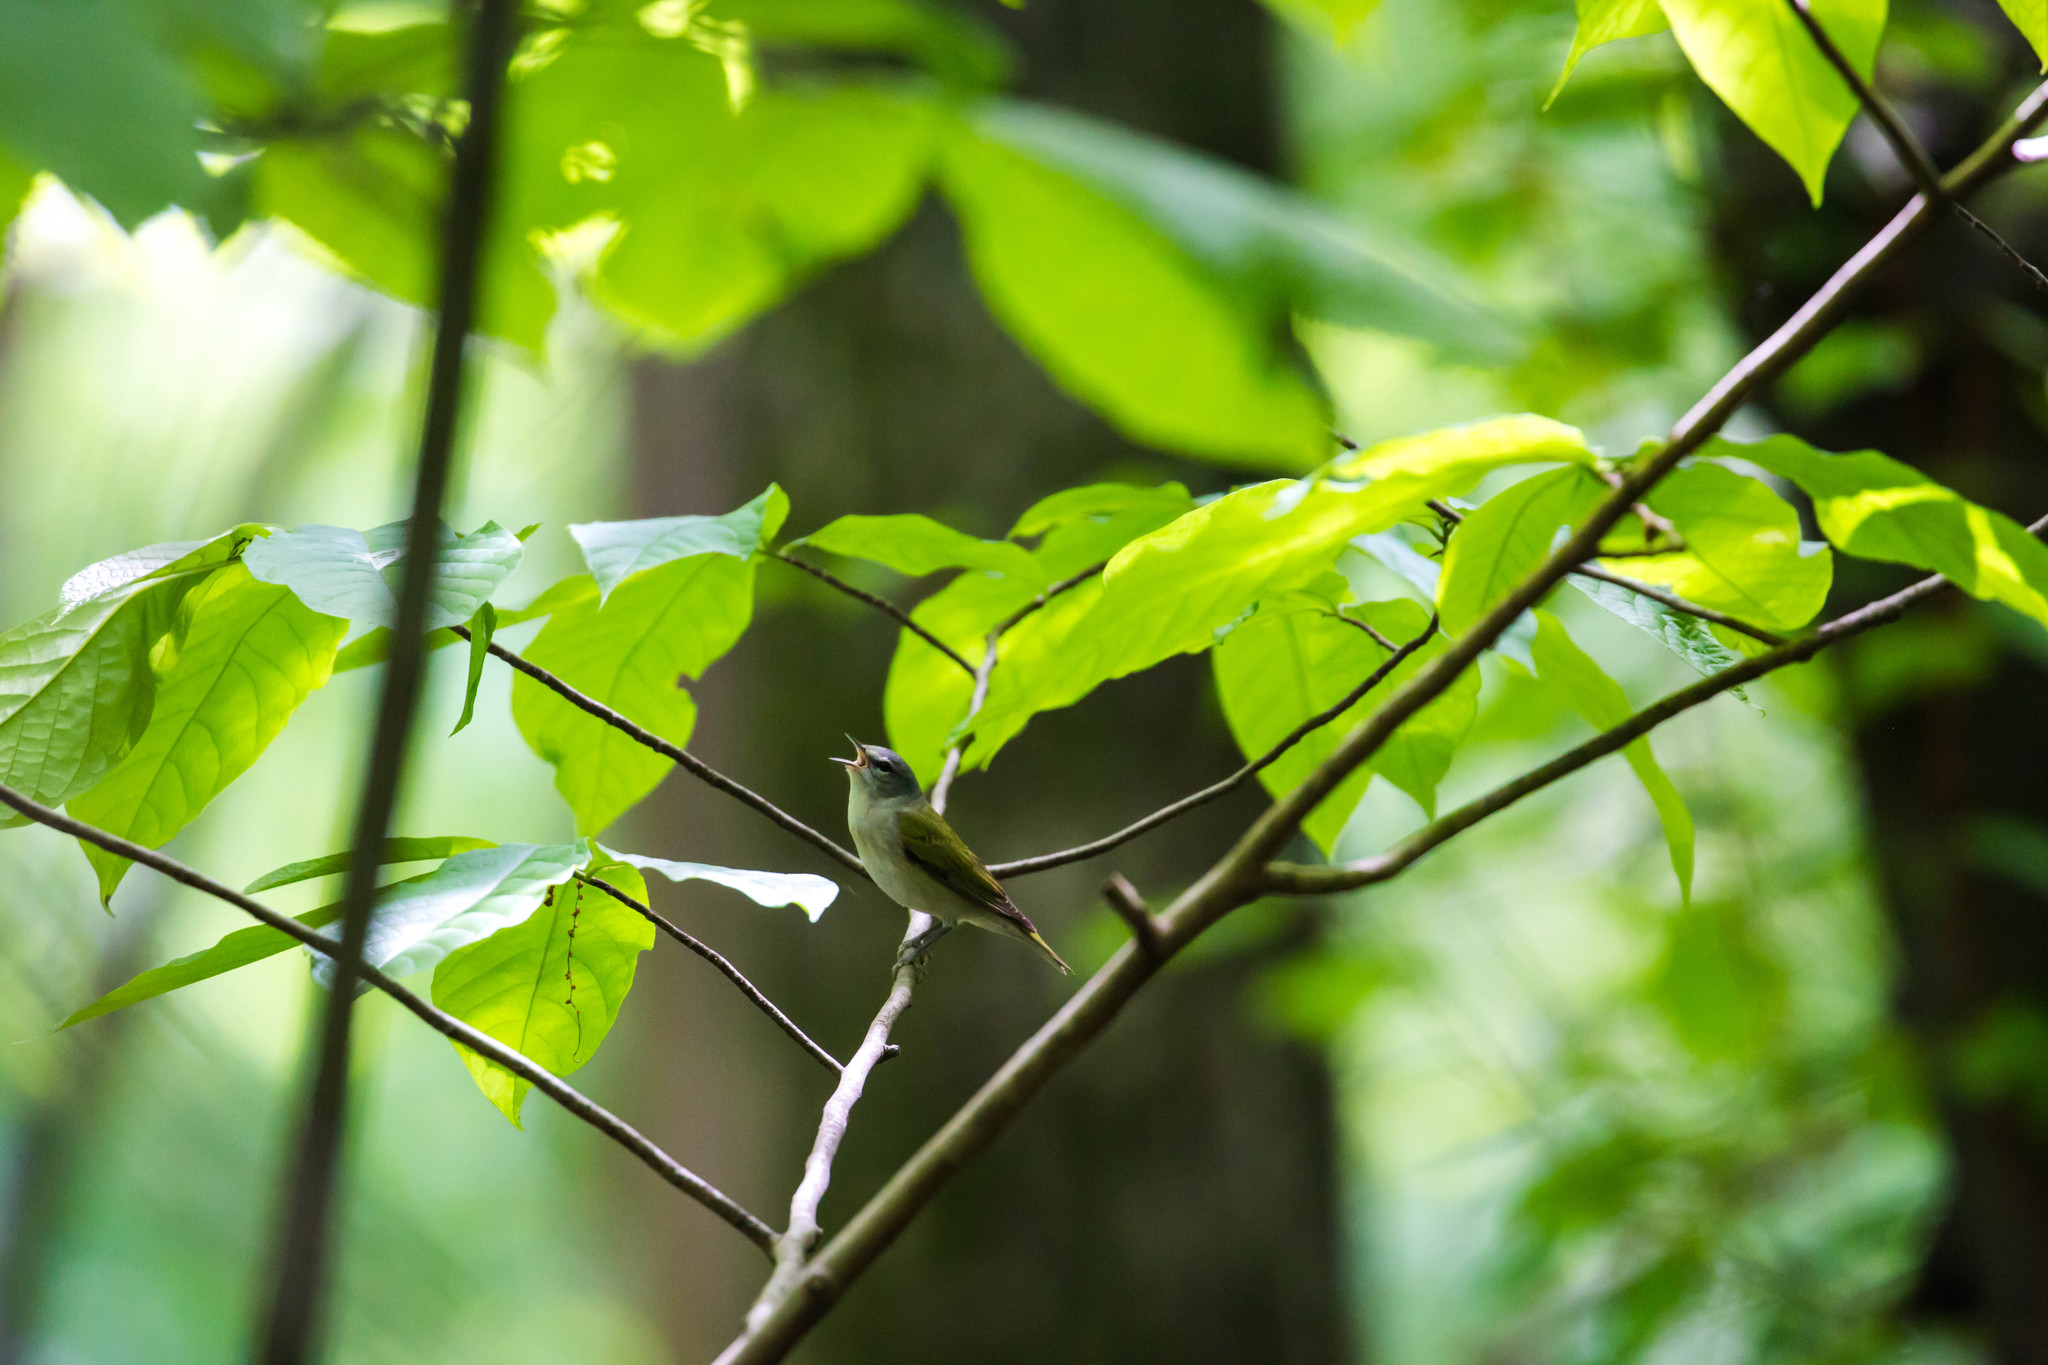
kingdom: Animalia
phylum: Chordata
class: Aves
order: Passeriformes
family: Parulidae
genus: Leiothlypis
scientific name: Leiothlypis peregrina
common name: Tennessee warbler
